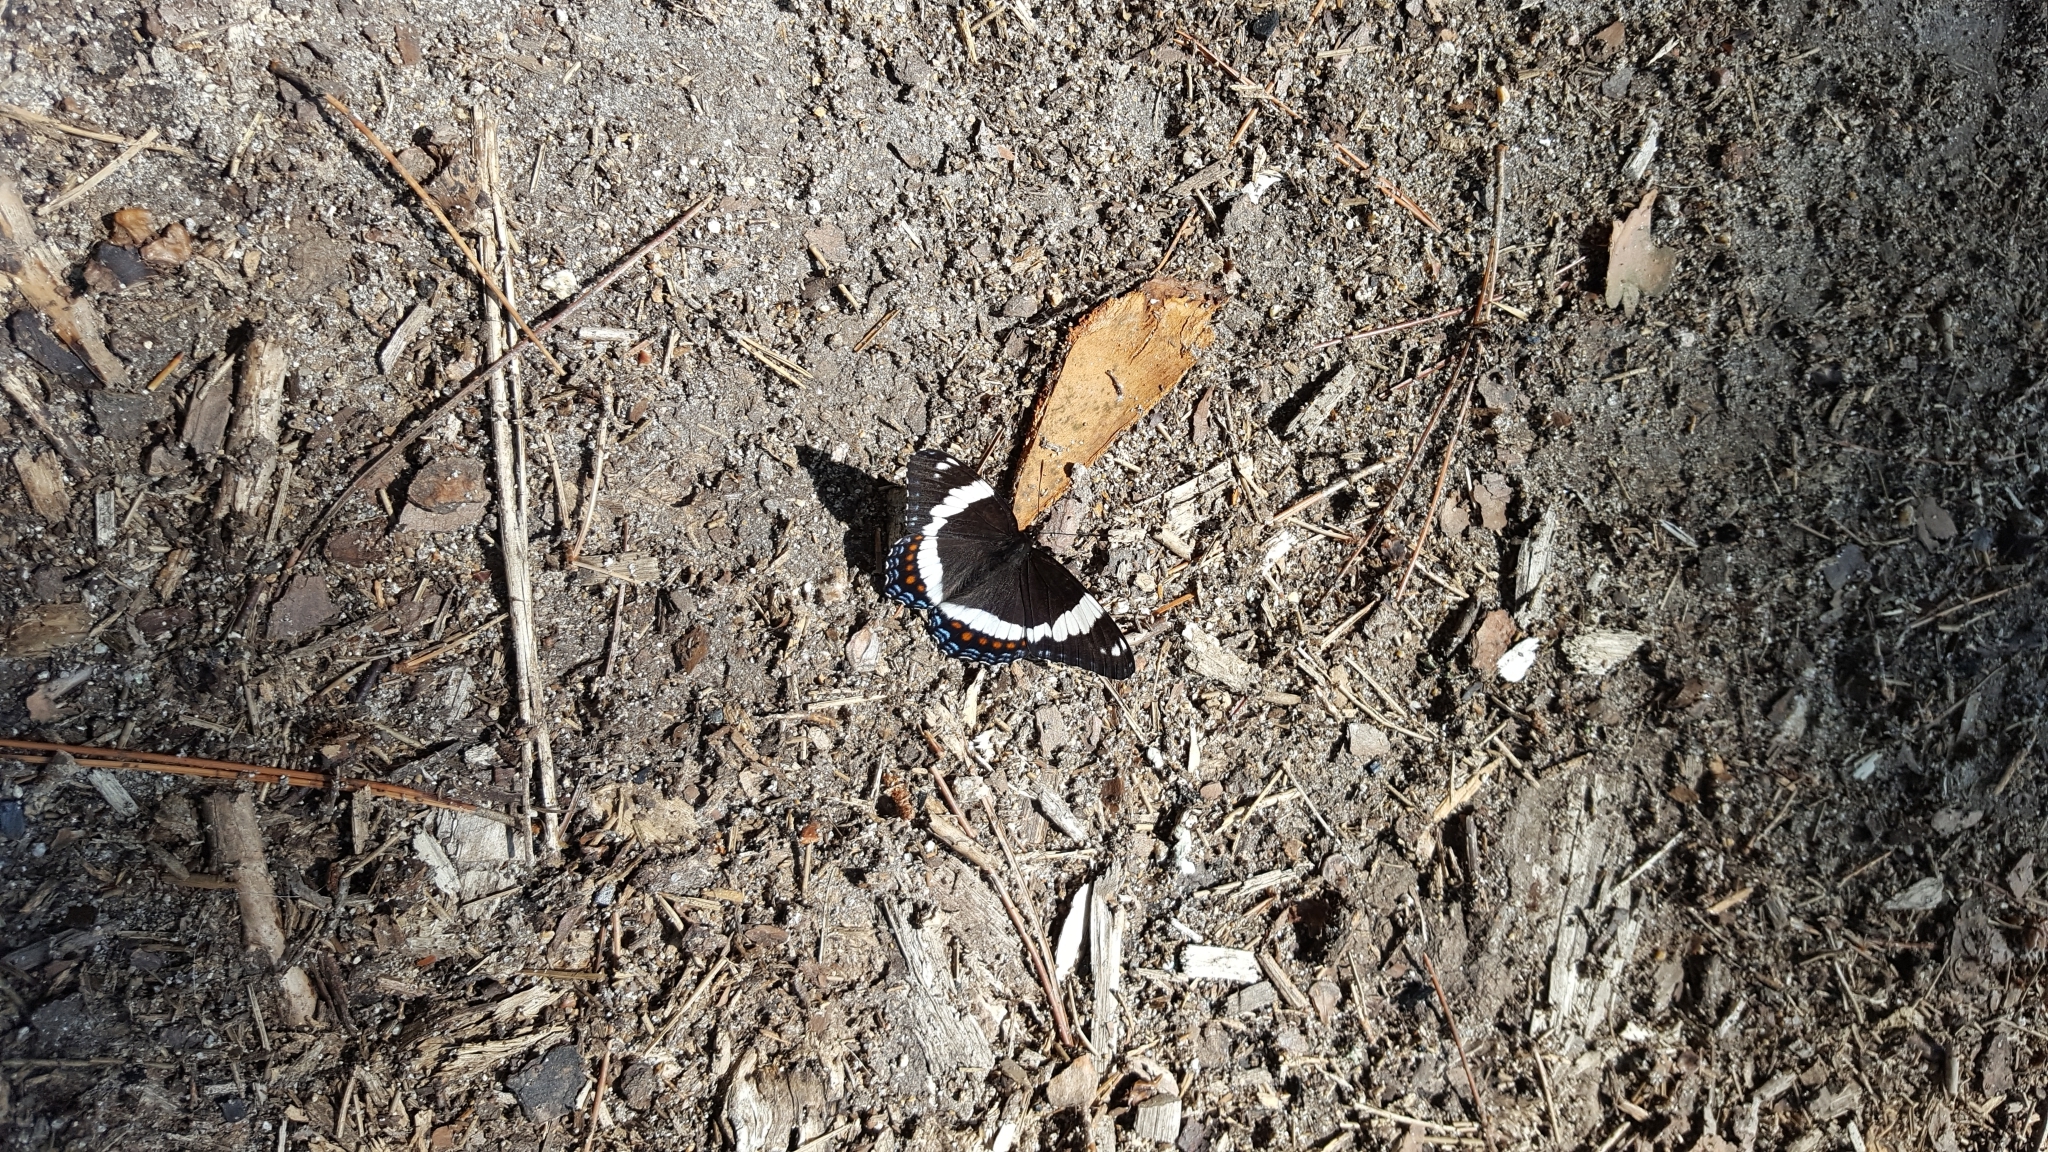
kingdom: Animalia
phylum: Arthropoda
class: Insecta
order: Lepidoptera
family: Nymphalidae
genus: Limenitis
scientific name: Limenitis arthemis
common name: Red-spotted admiral
